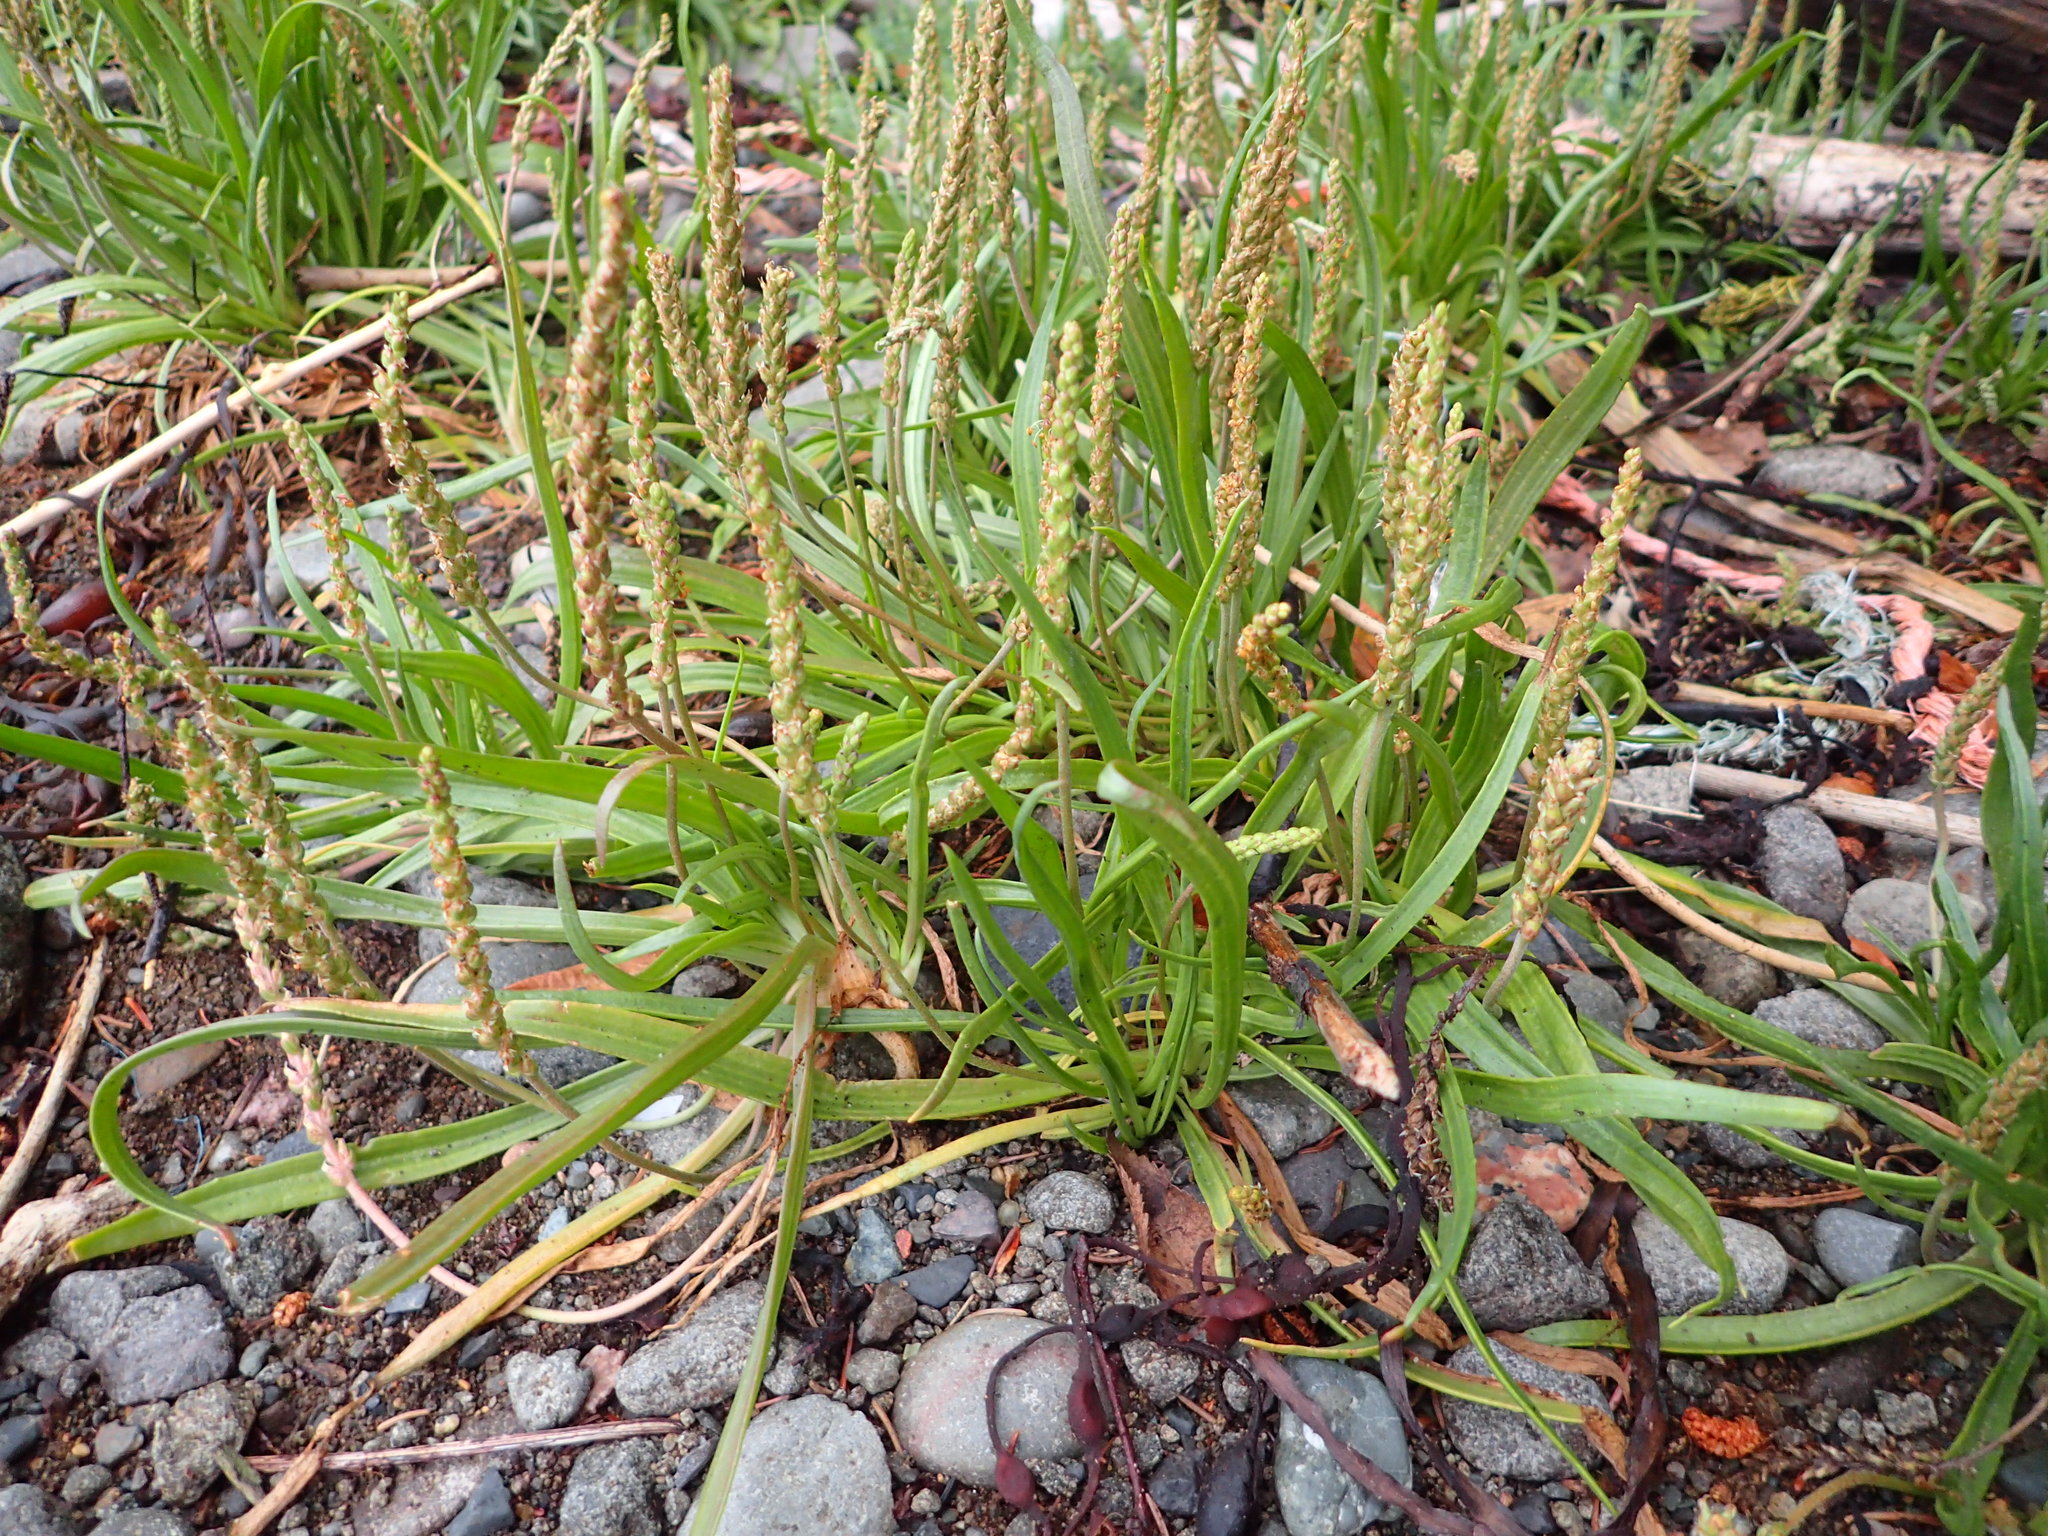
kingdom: Plantae
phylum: Tracheophyta
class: Magnoliopsida
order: Lamiales
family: Plantaginaceae
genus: Plantago
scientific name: Plantago maritima
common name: Sea plantain
